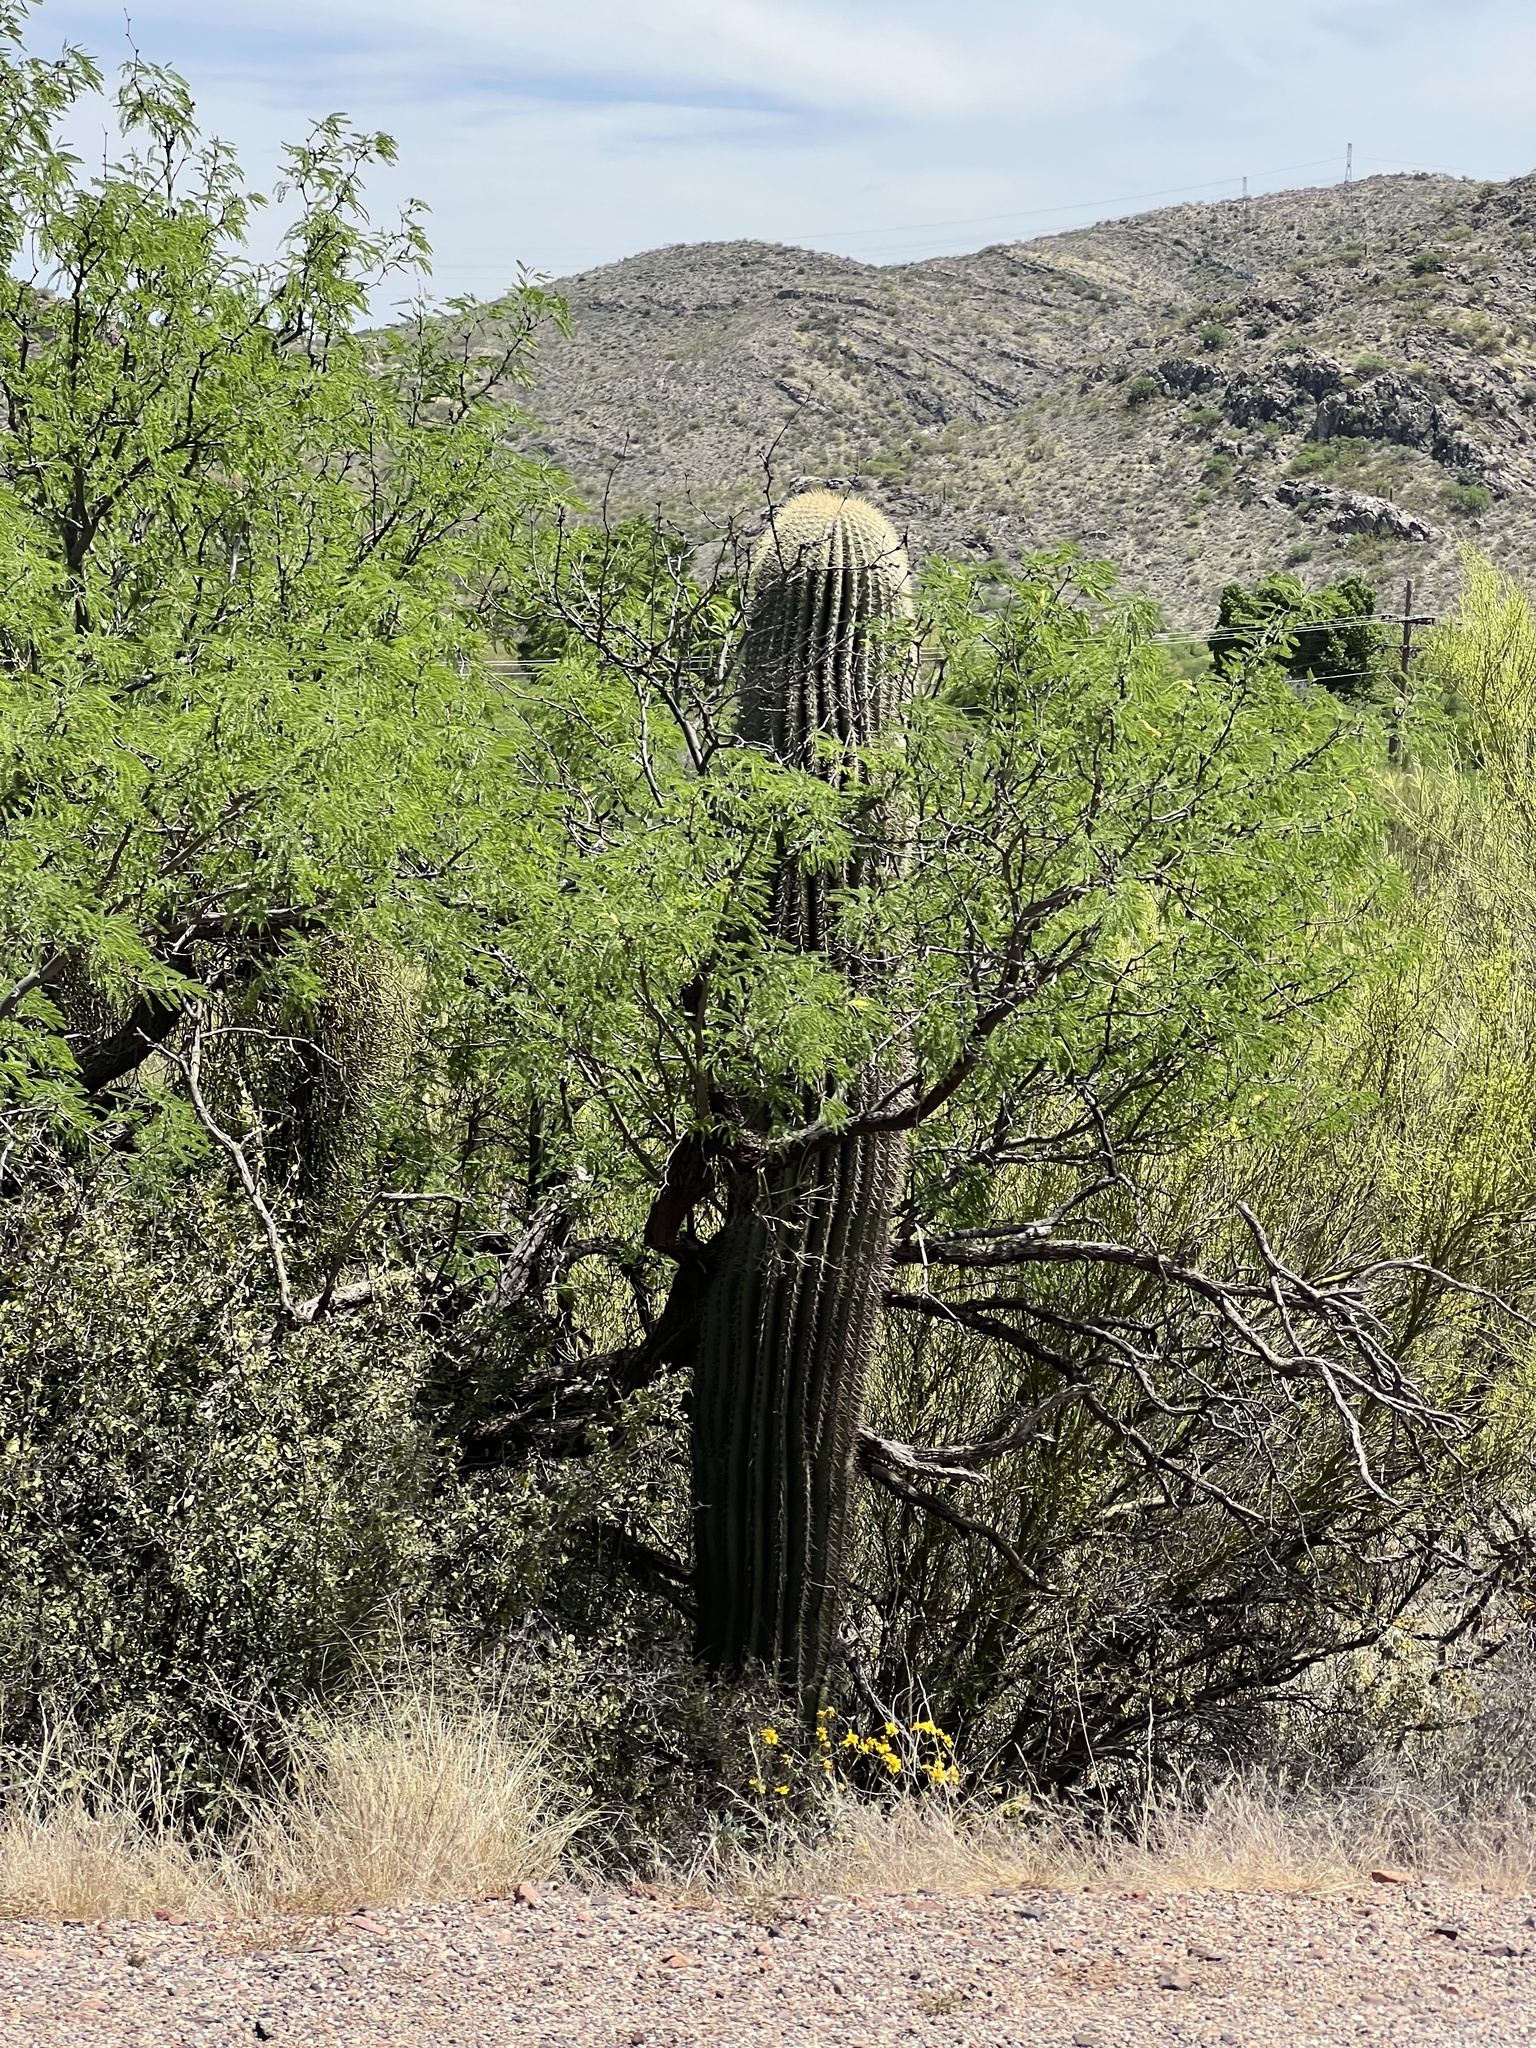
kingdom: Plantae
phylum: Tracheophyta
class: Magnoliopsida
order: Caryophyllales
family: Cactaceae
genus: Carnegiea
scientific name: Carnegiea gigantea
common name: Saguaro
